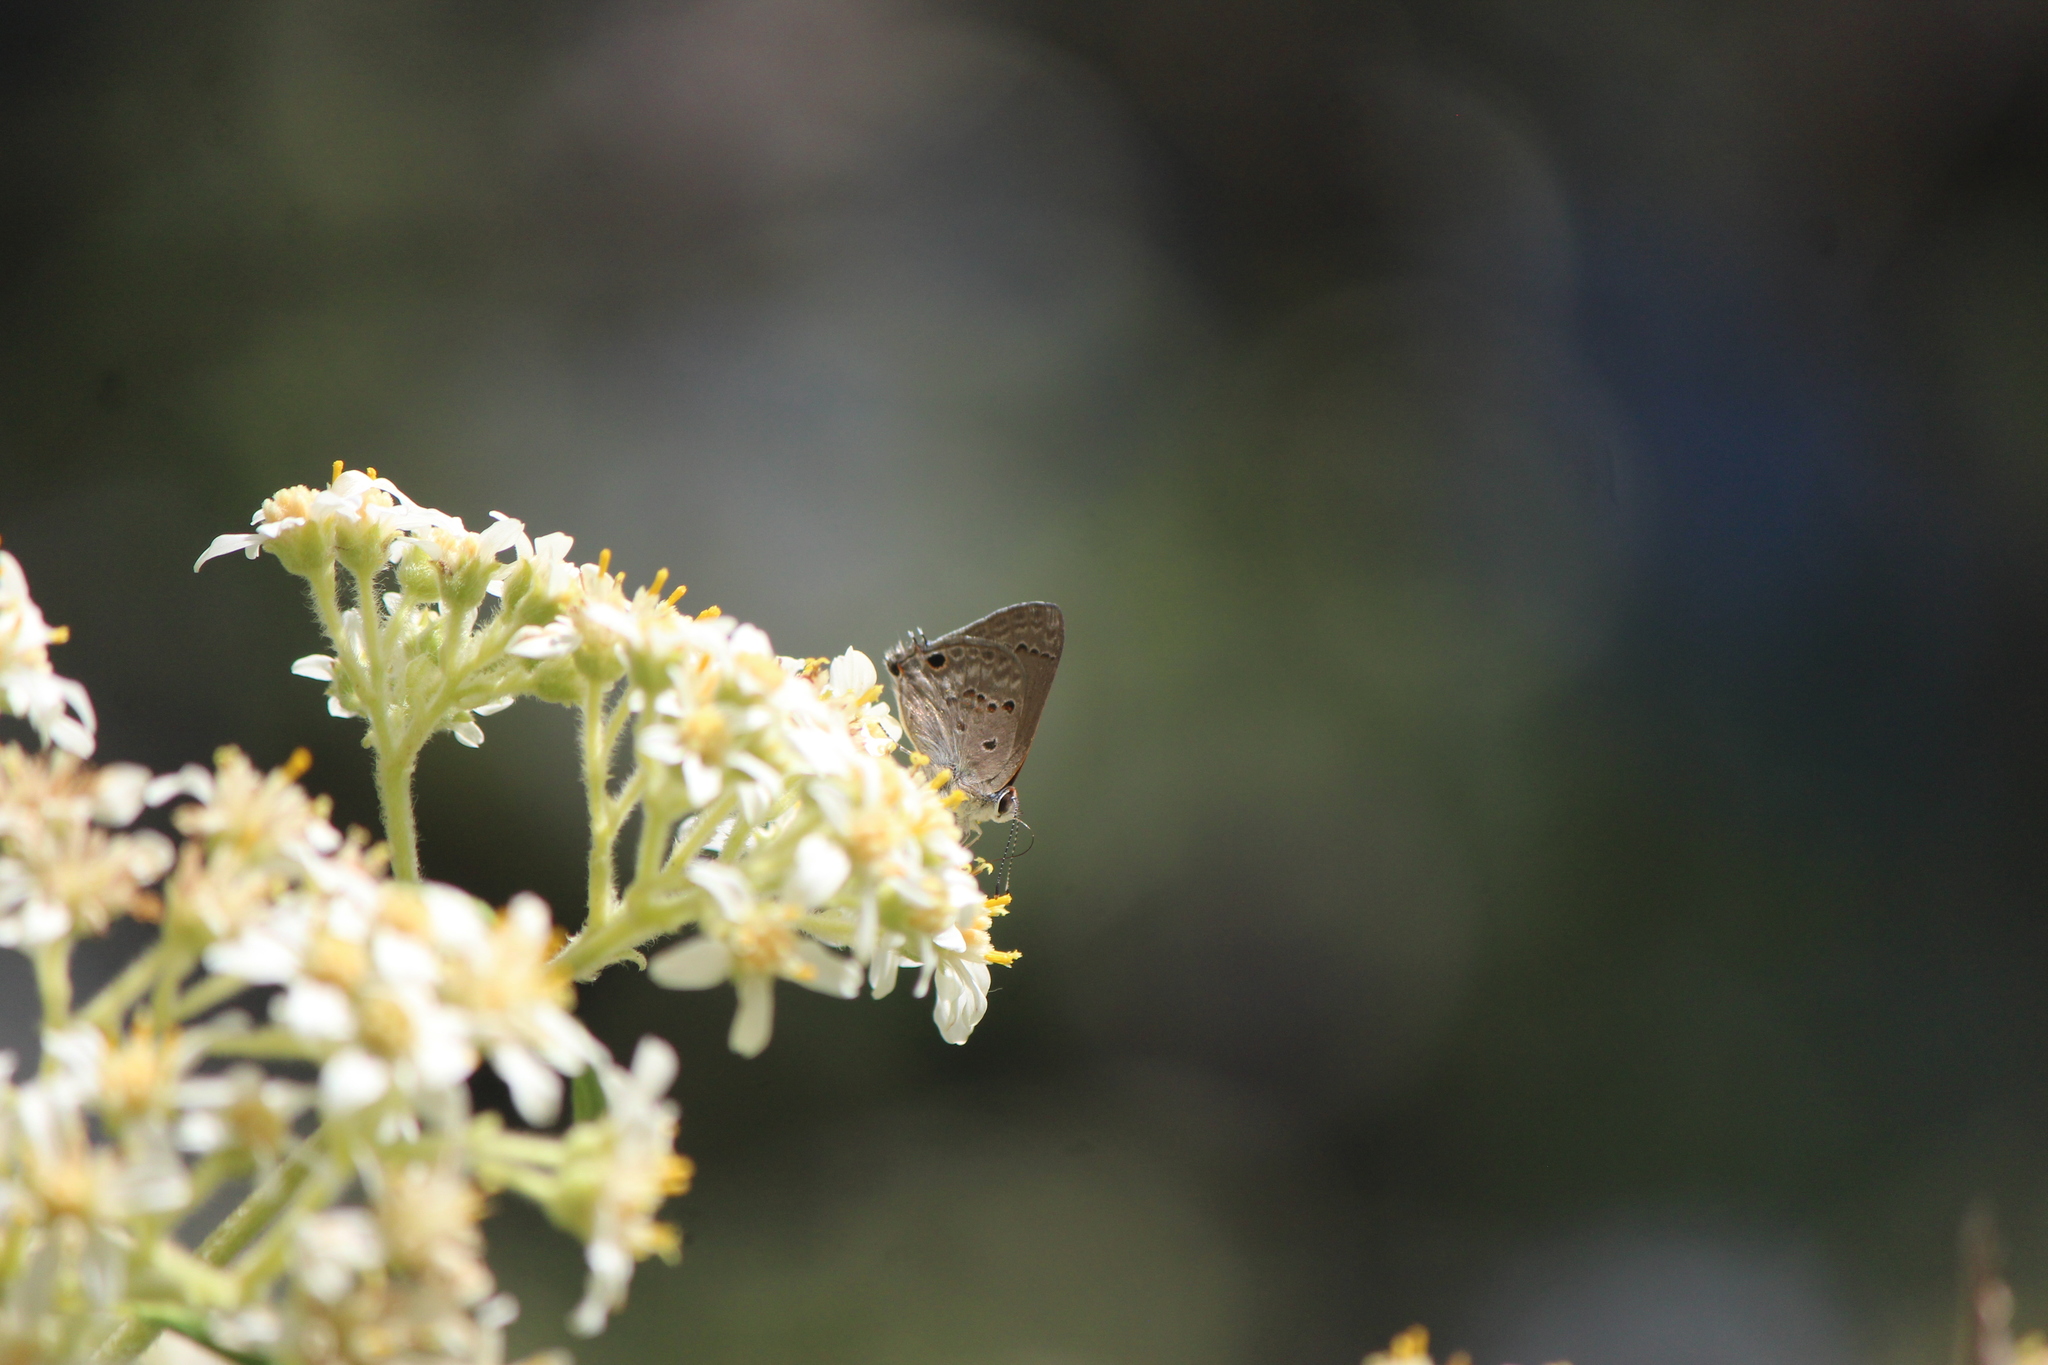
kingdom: Animalia
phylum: Arthropoda
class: Insecta
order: Lepidoptera
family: Lycaenidae
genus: Callicista
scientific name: Callicista columella
